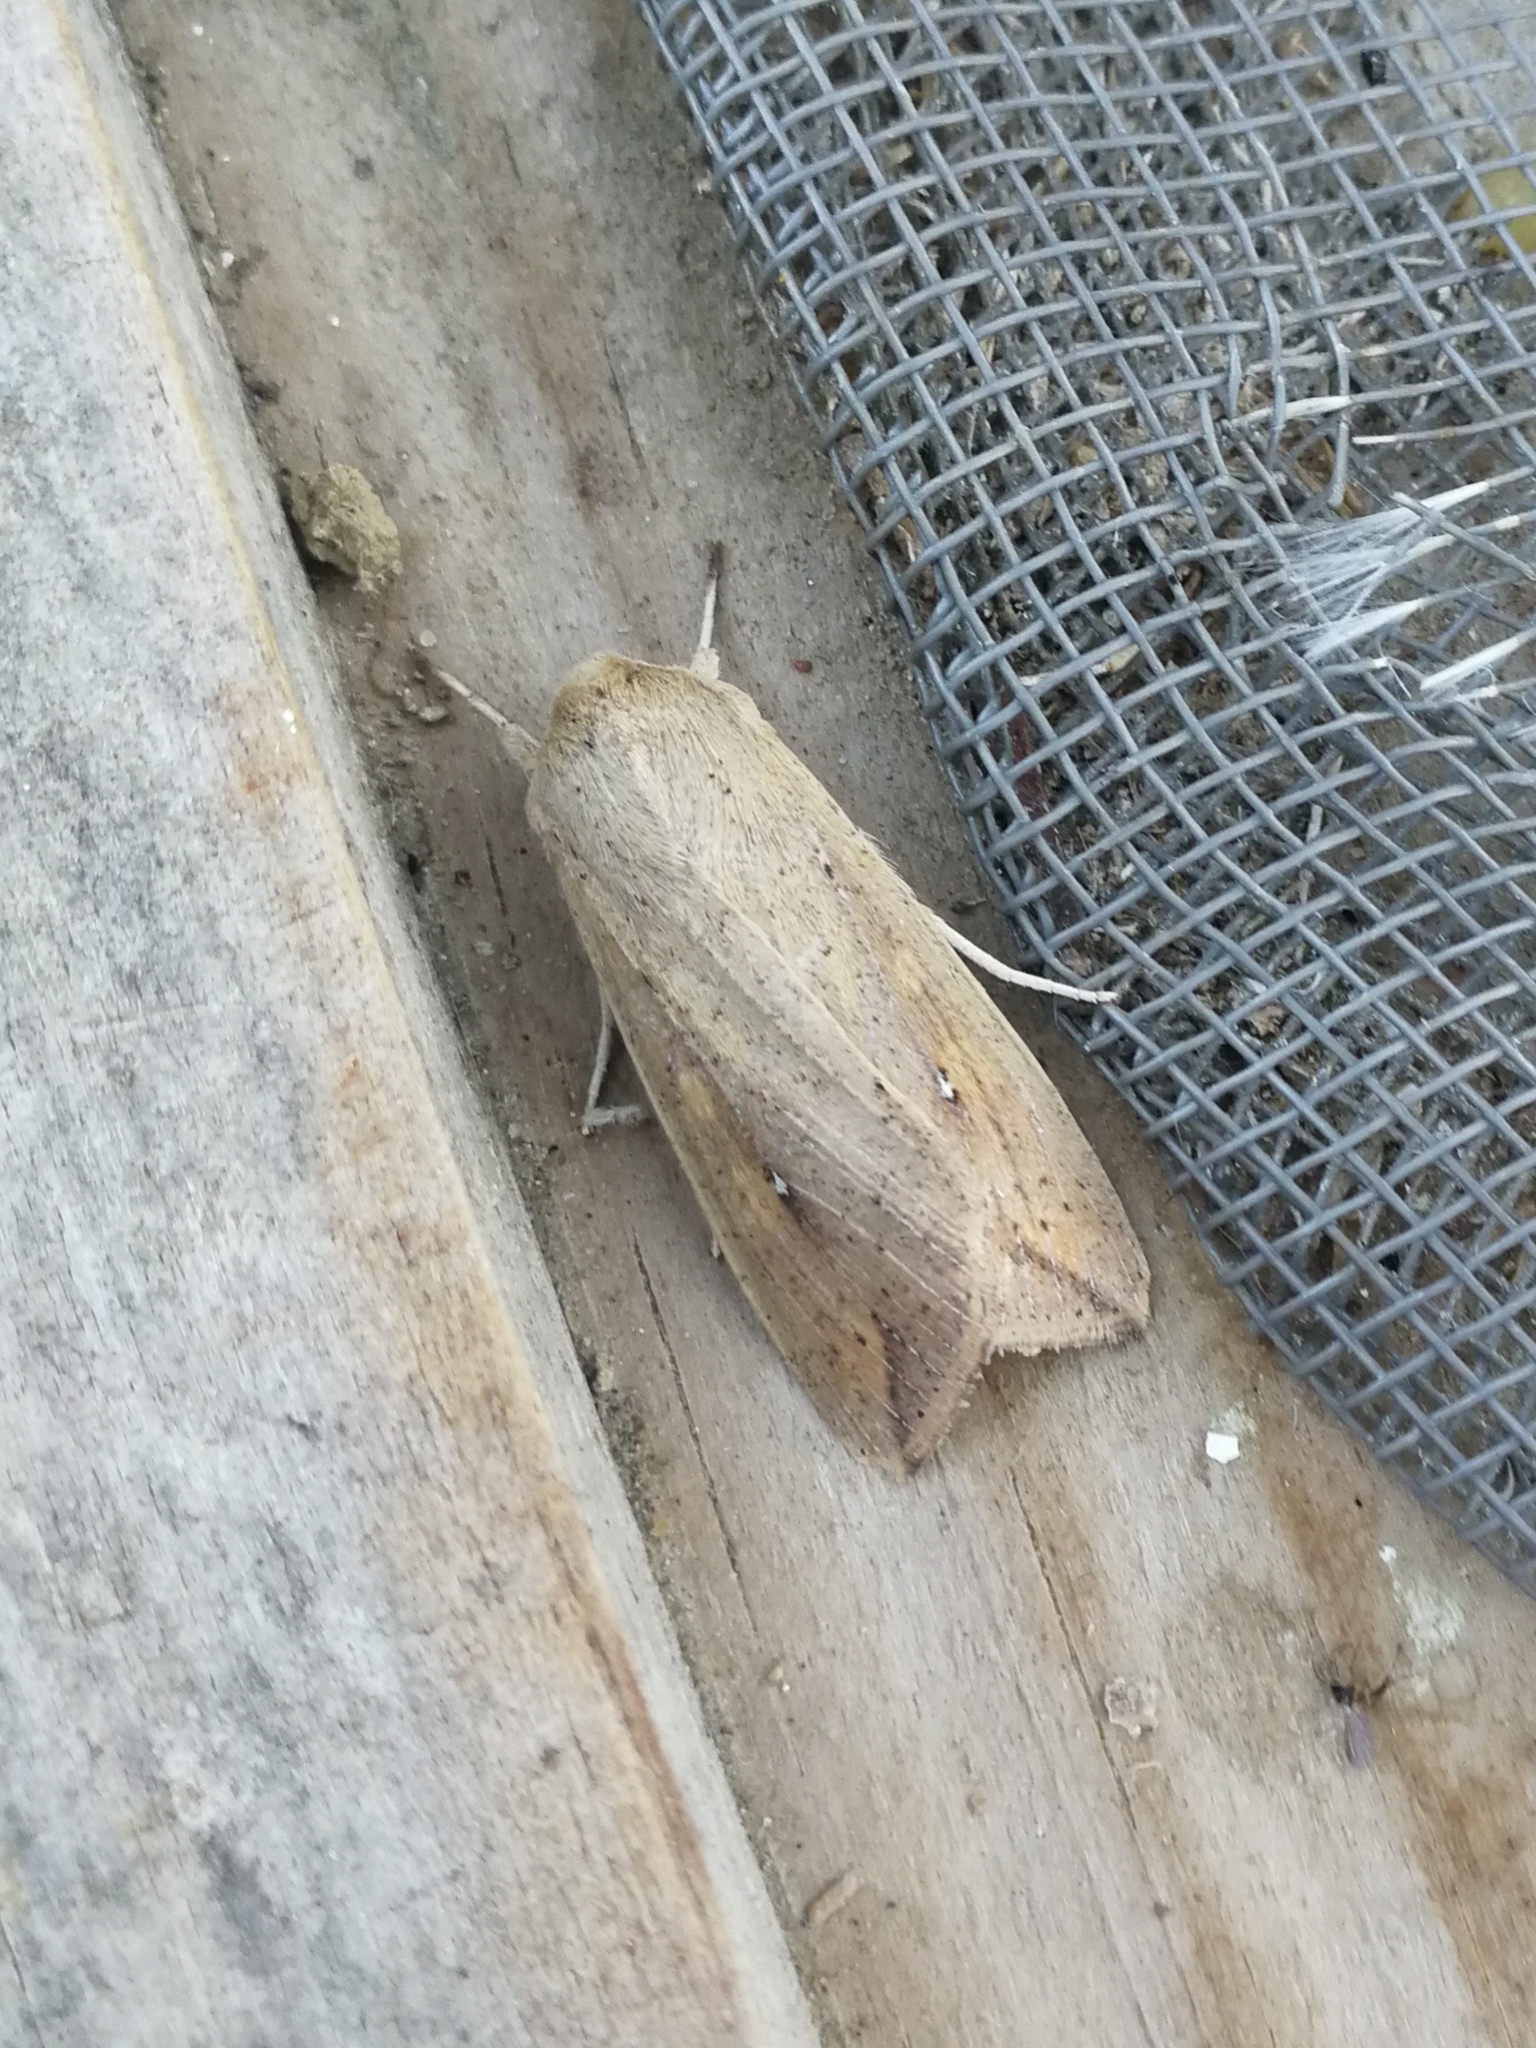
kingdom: Animalia
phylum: Arthropoda
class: Insecta
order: Lepidoptera
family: Noctuidae
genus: Mythimna
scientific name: Mythimna unipuncta
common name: White-speck
